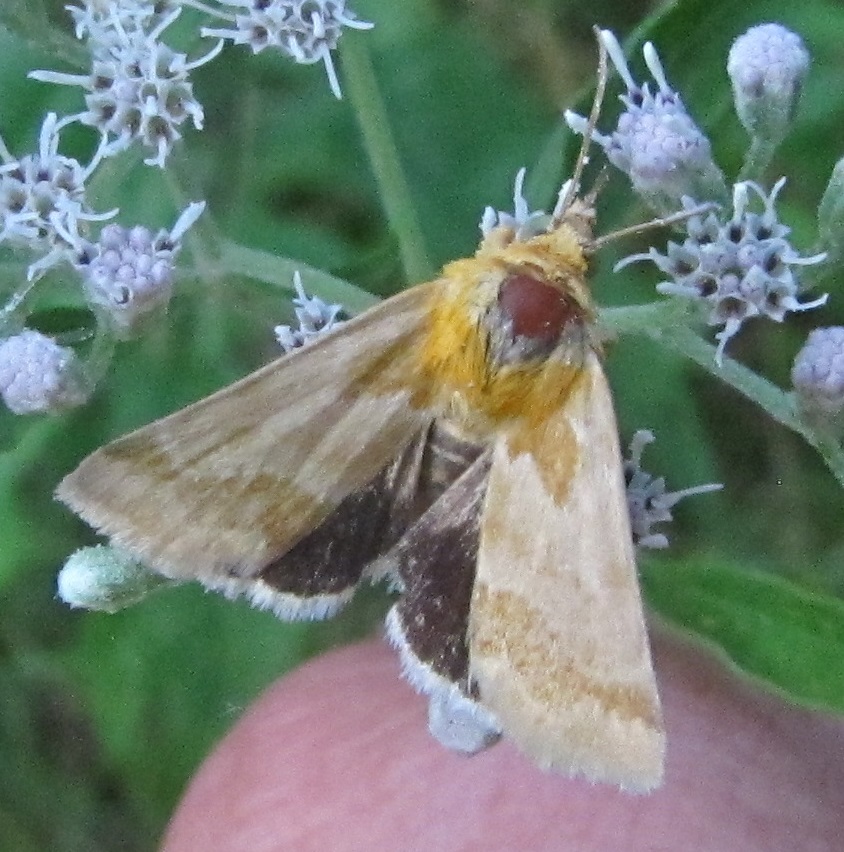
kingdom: Animalia
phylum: Arthropoda
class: Insecta
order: Lepidoptera
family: Noctuidae
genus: Schinia
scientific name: Schinia siren
